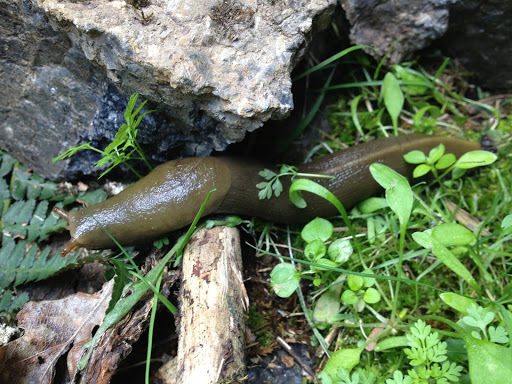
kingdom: Animalia
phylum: Mollusca
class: Gastropoda
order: Stylommatophora
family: Ariolimacidae
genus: Ariolimax
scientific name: Ariolimax buttoni
